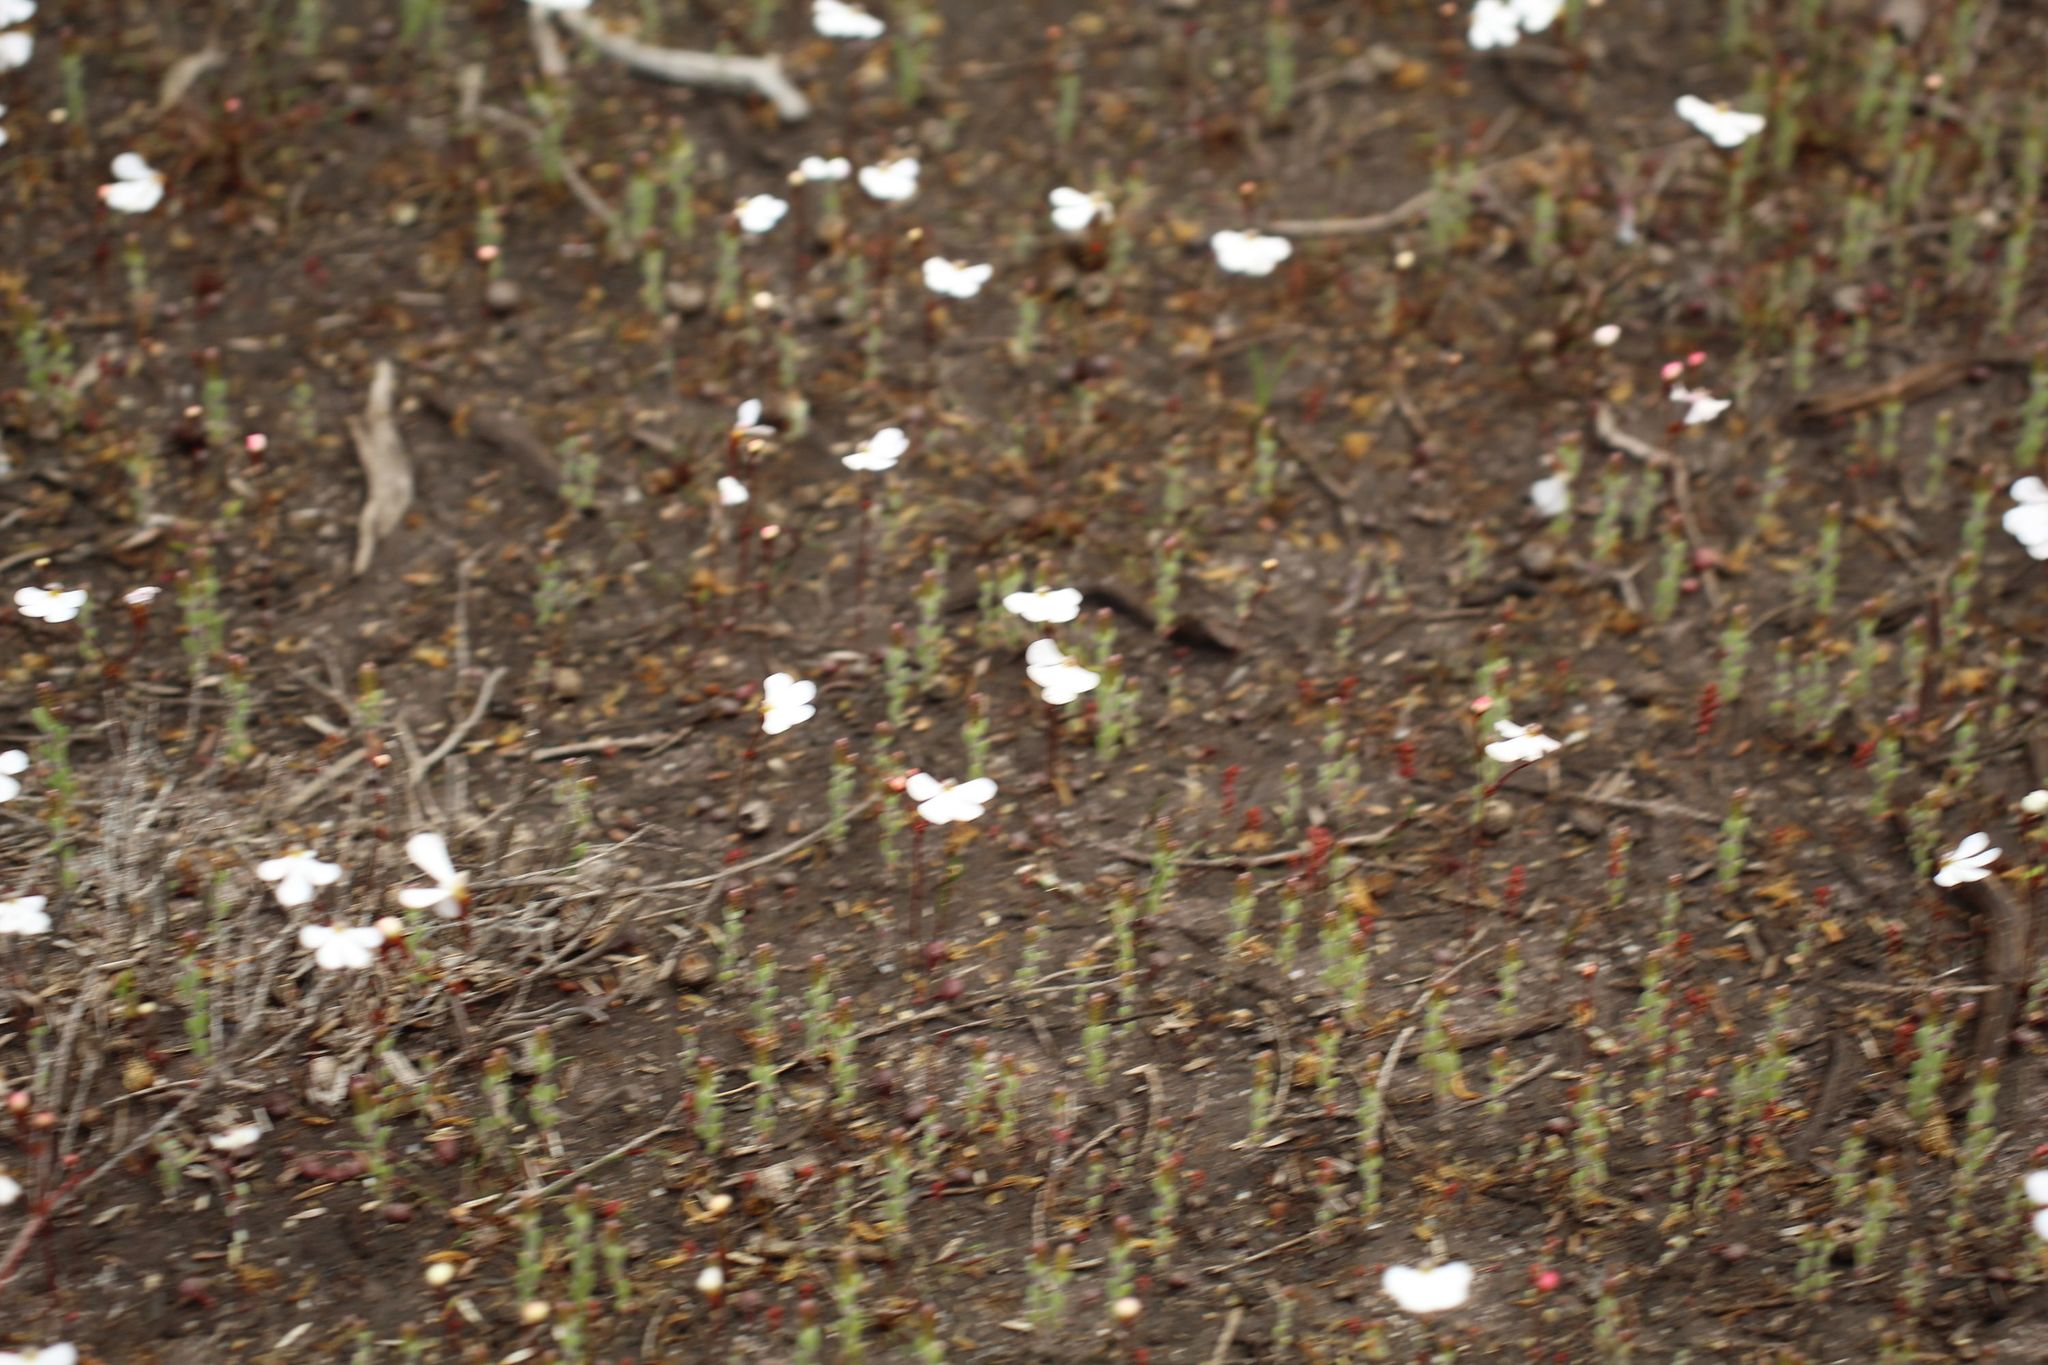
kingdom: Plantae
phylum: Tracheophyta
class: Magnoliopsida
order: Asterales
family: Stylidiaceae
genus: Stylidium
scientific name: Stylidium insensitivum
